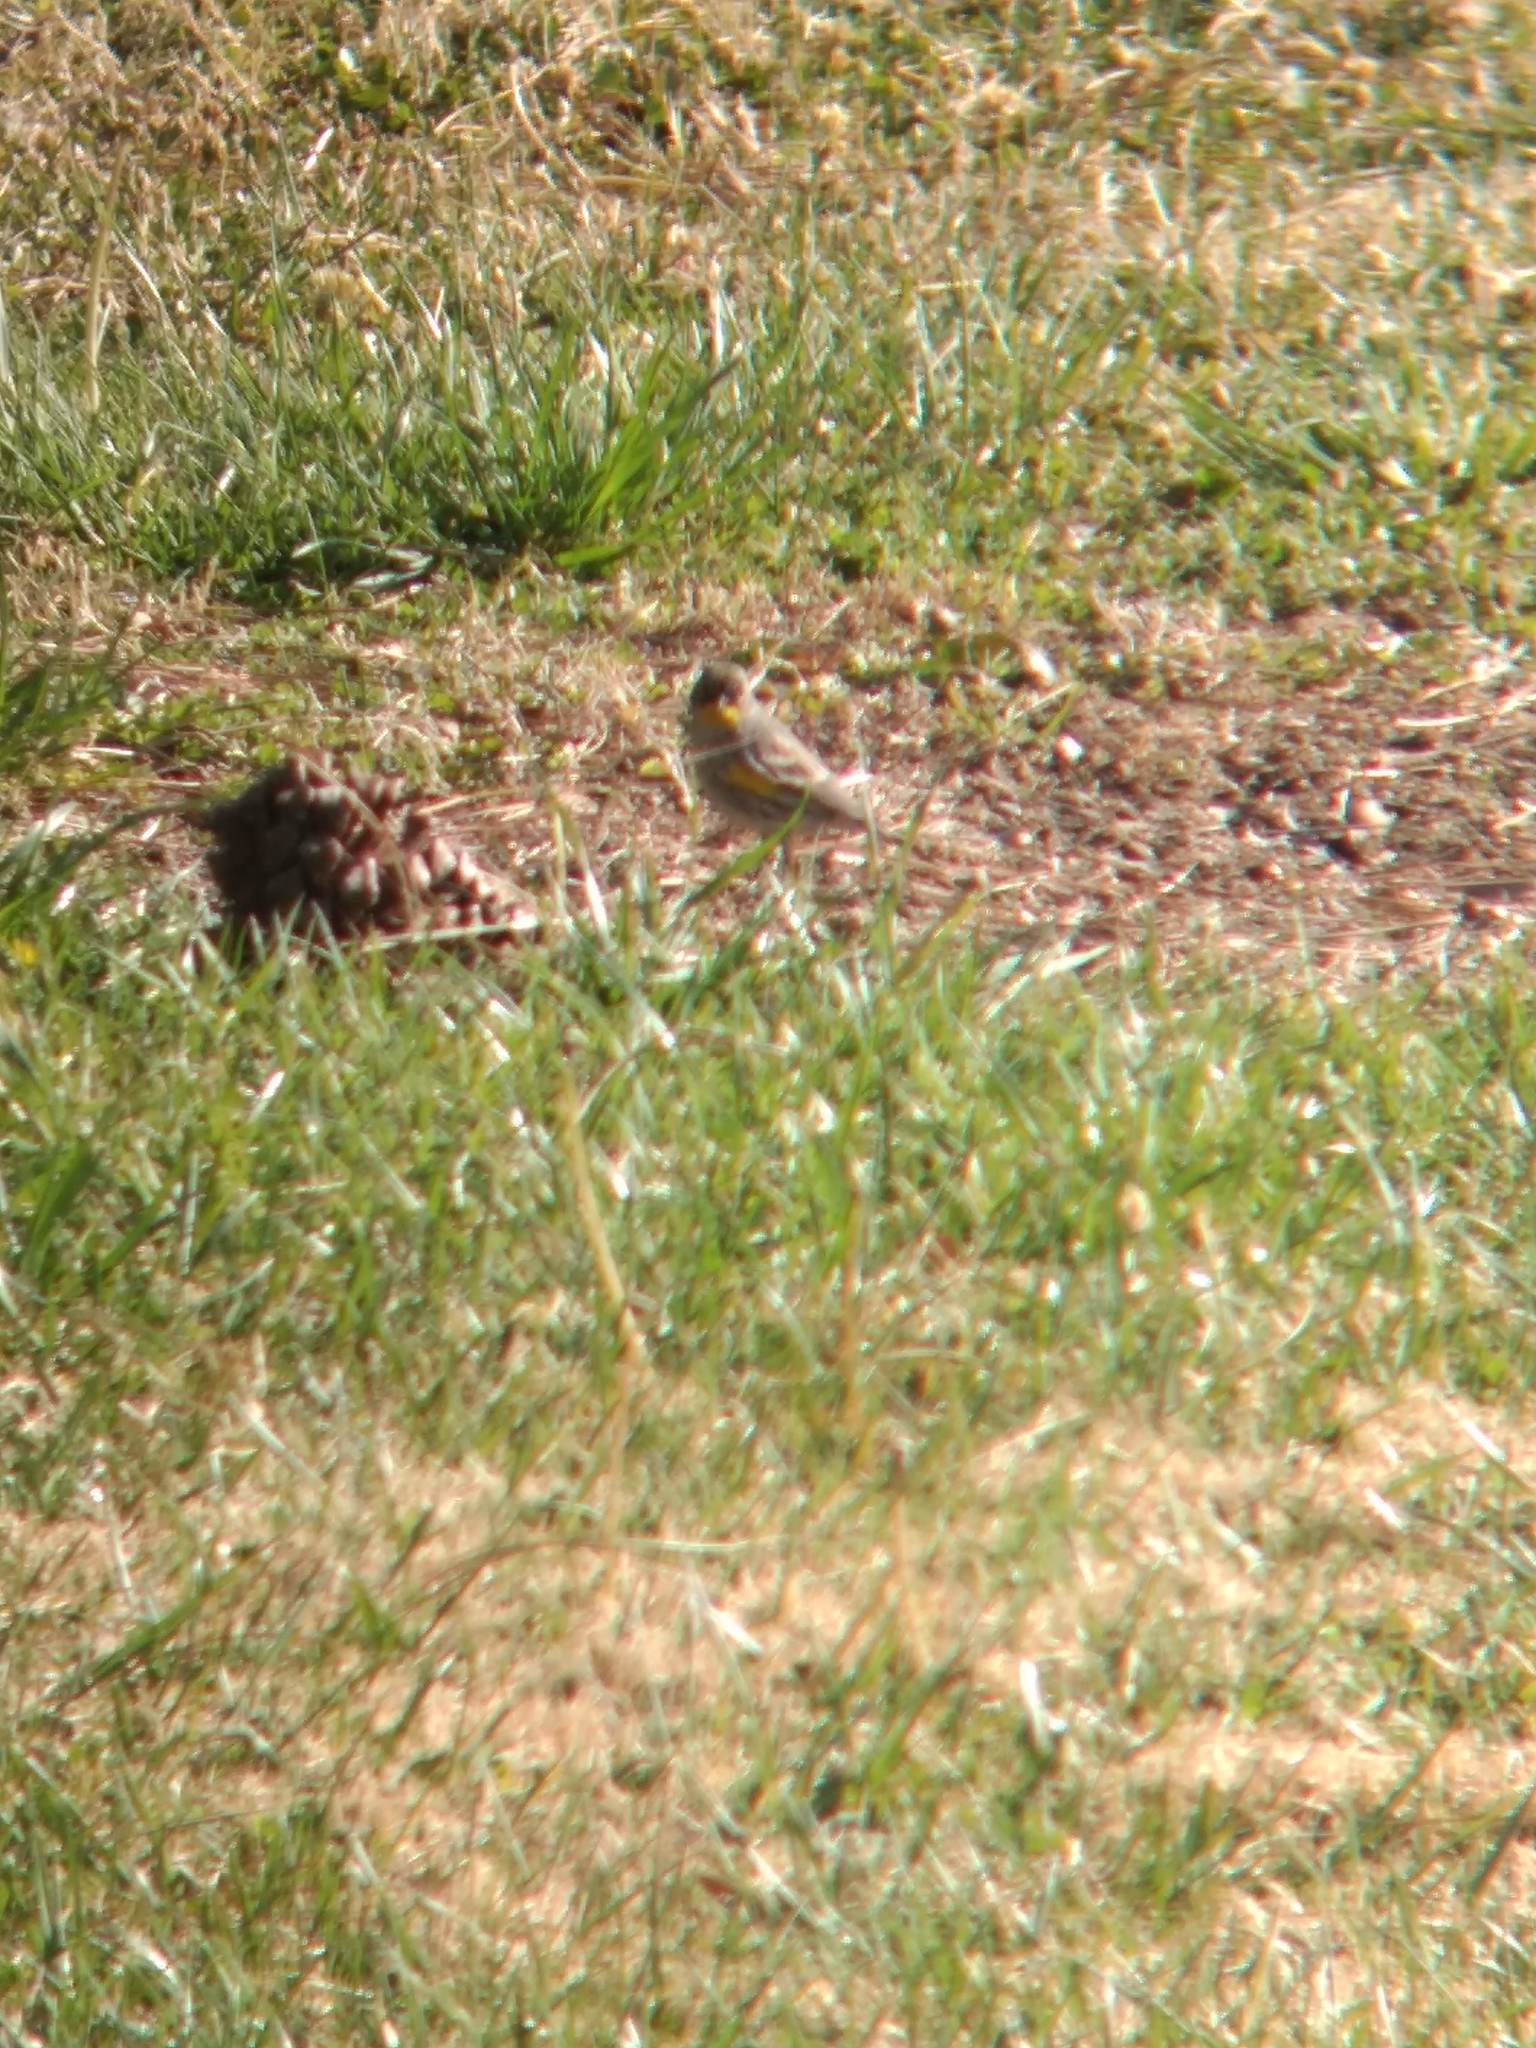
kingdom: Animalia
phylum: Chordata
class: Aves
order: Passeriformes
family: Parulidae
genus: Setophaga
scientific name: Setophaga coronata
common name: Myrtle warbler
